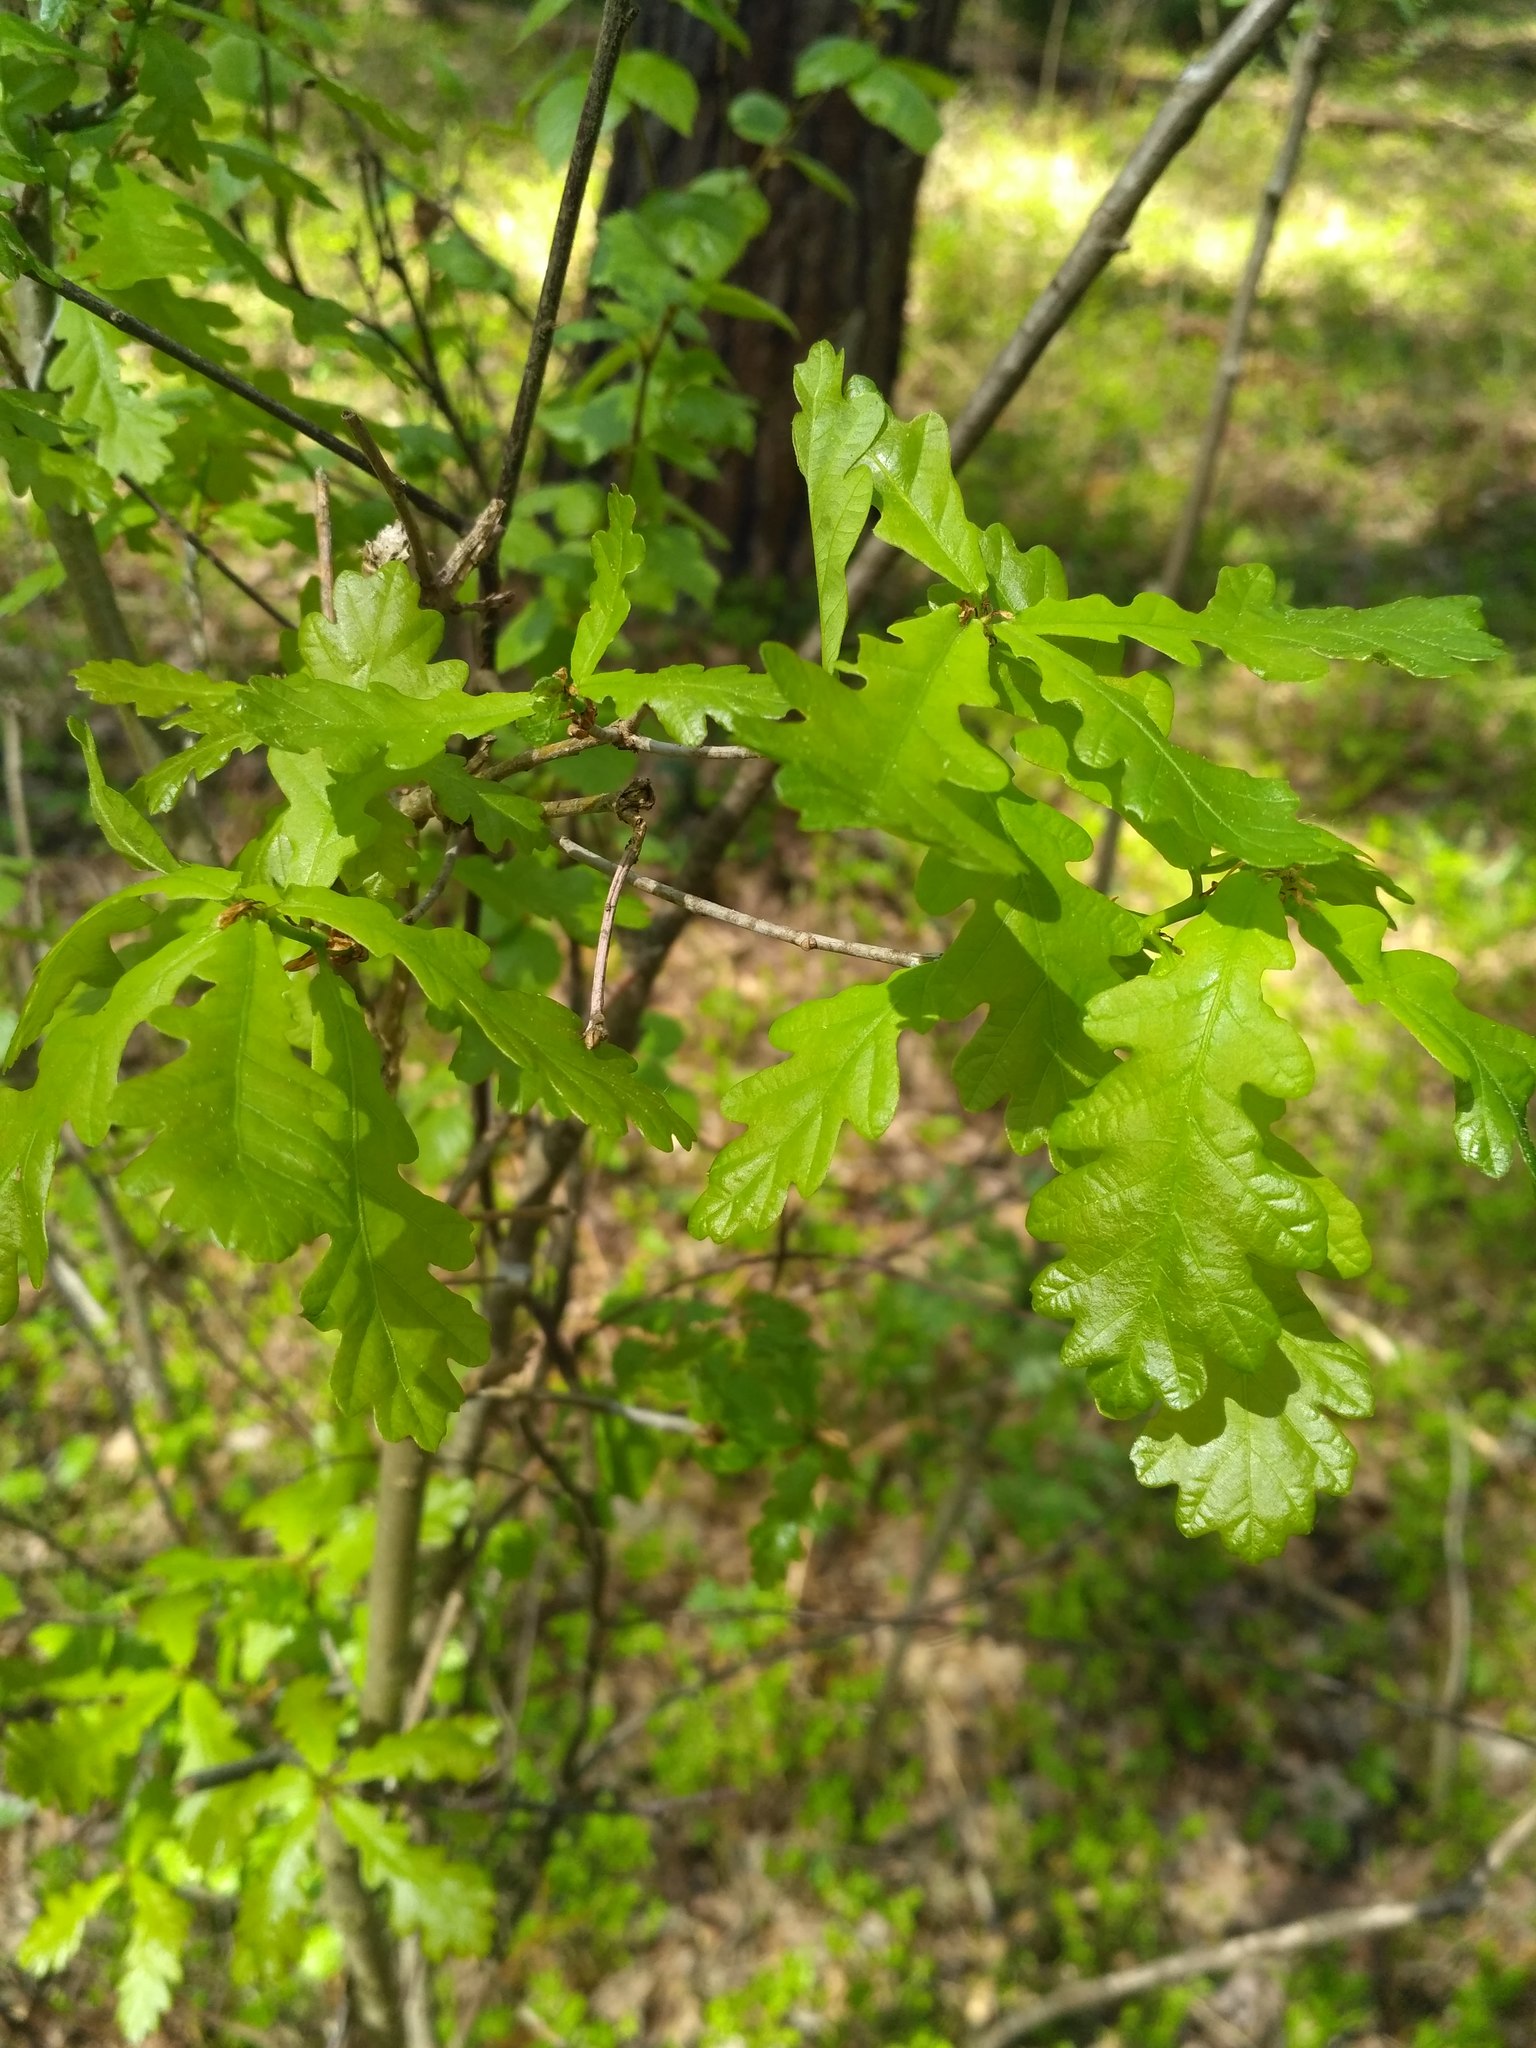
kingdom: Plantae
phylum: Tracheophyta
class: Magnoliopsida
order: Fagales
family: Fagaceae
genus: Quercus
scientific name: Quercus robur
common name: Pedunculate oak
